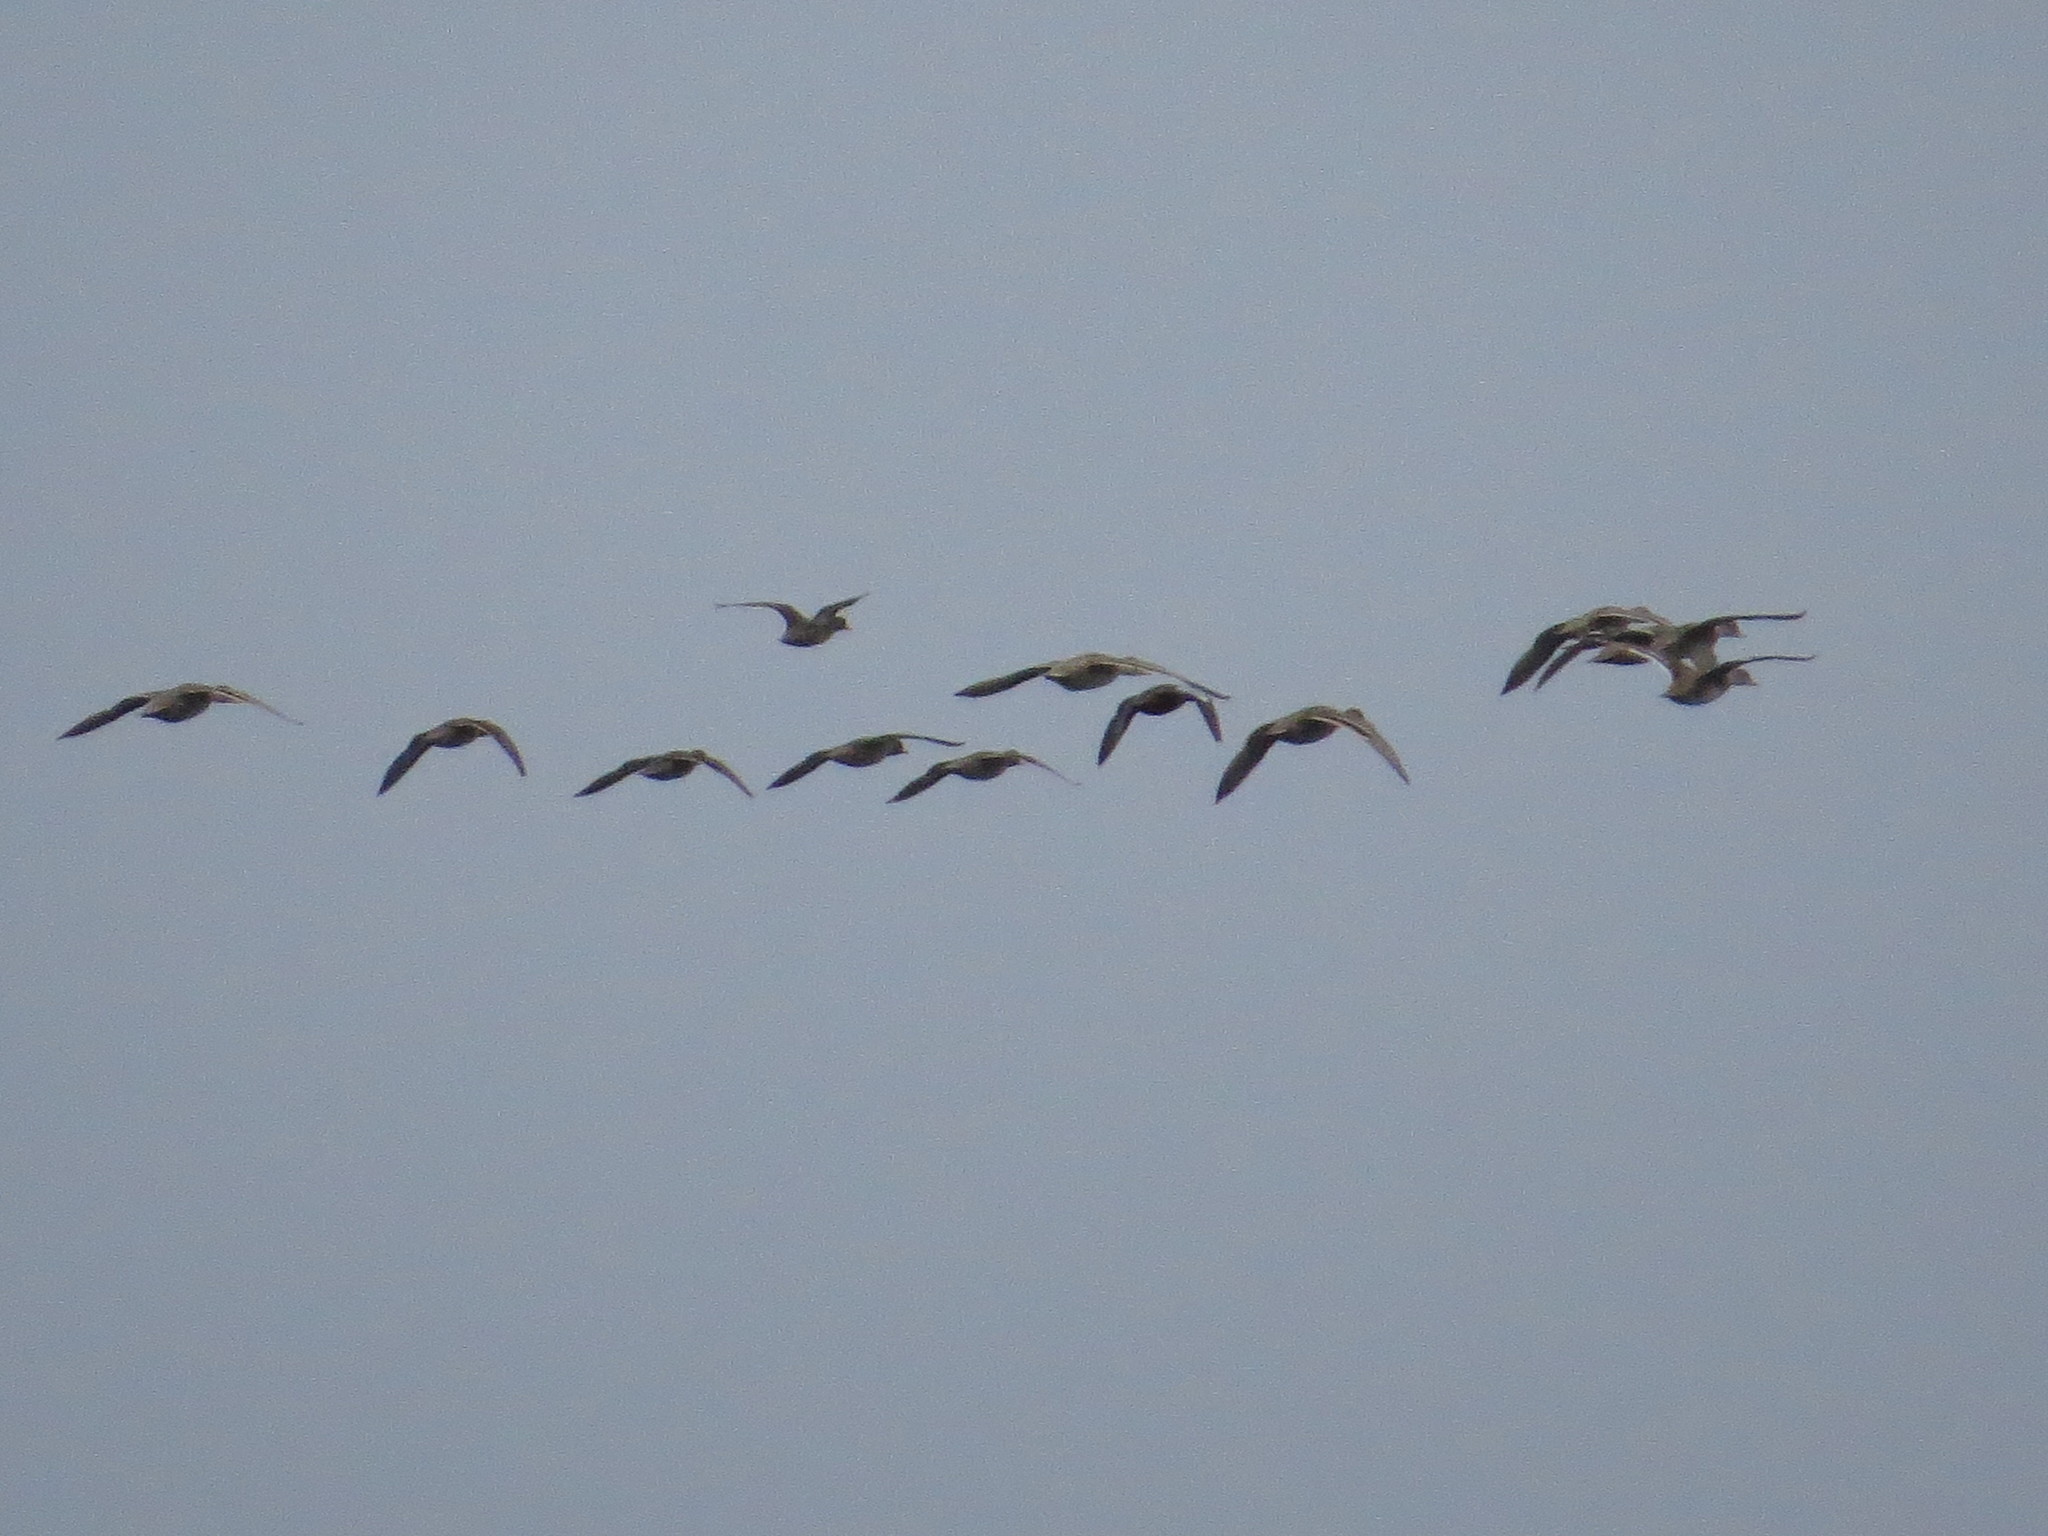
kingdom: Animalia
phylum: Chordata
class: Aves
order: Anseriformes
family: Anatidae
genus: Anas
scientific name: Anas georgica
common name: Yellow-billed pintail
